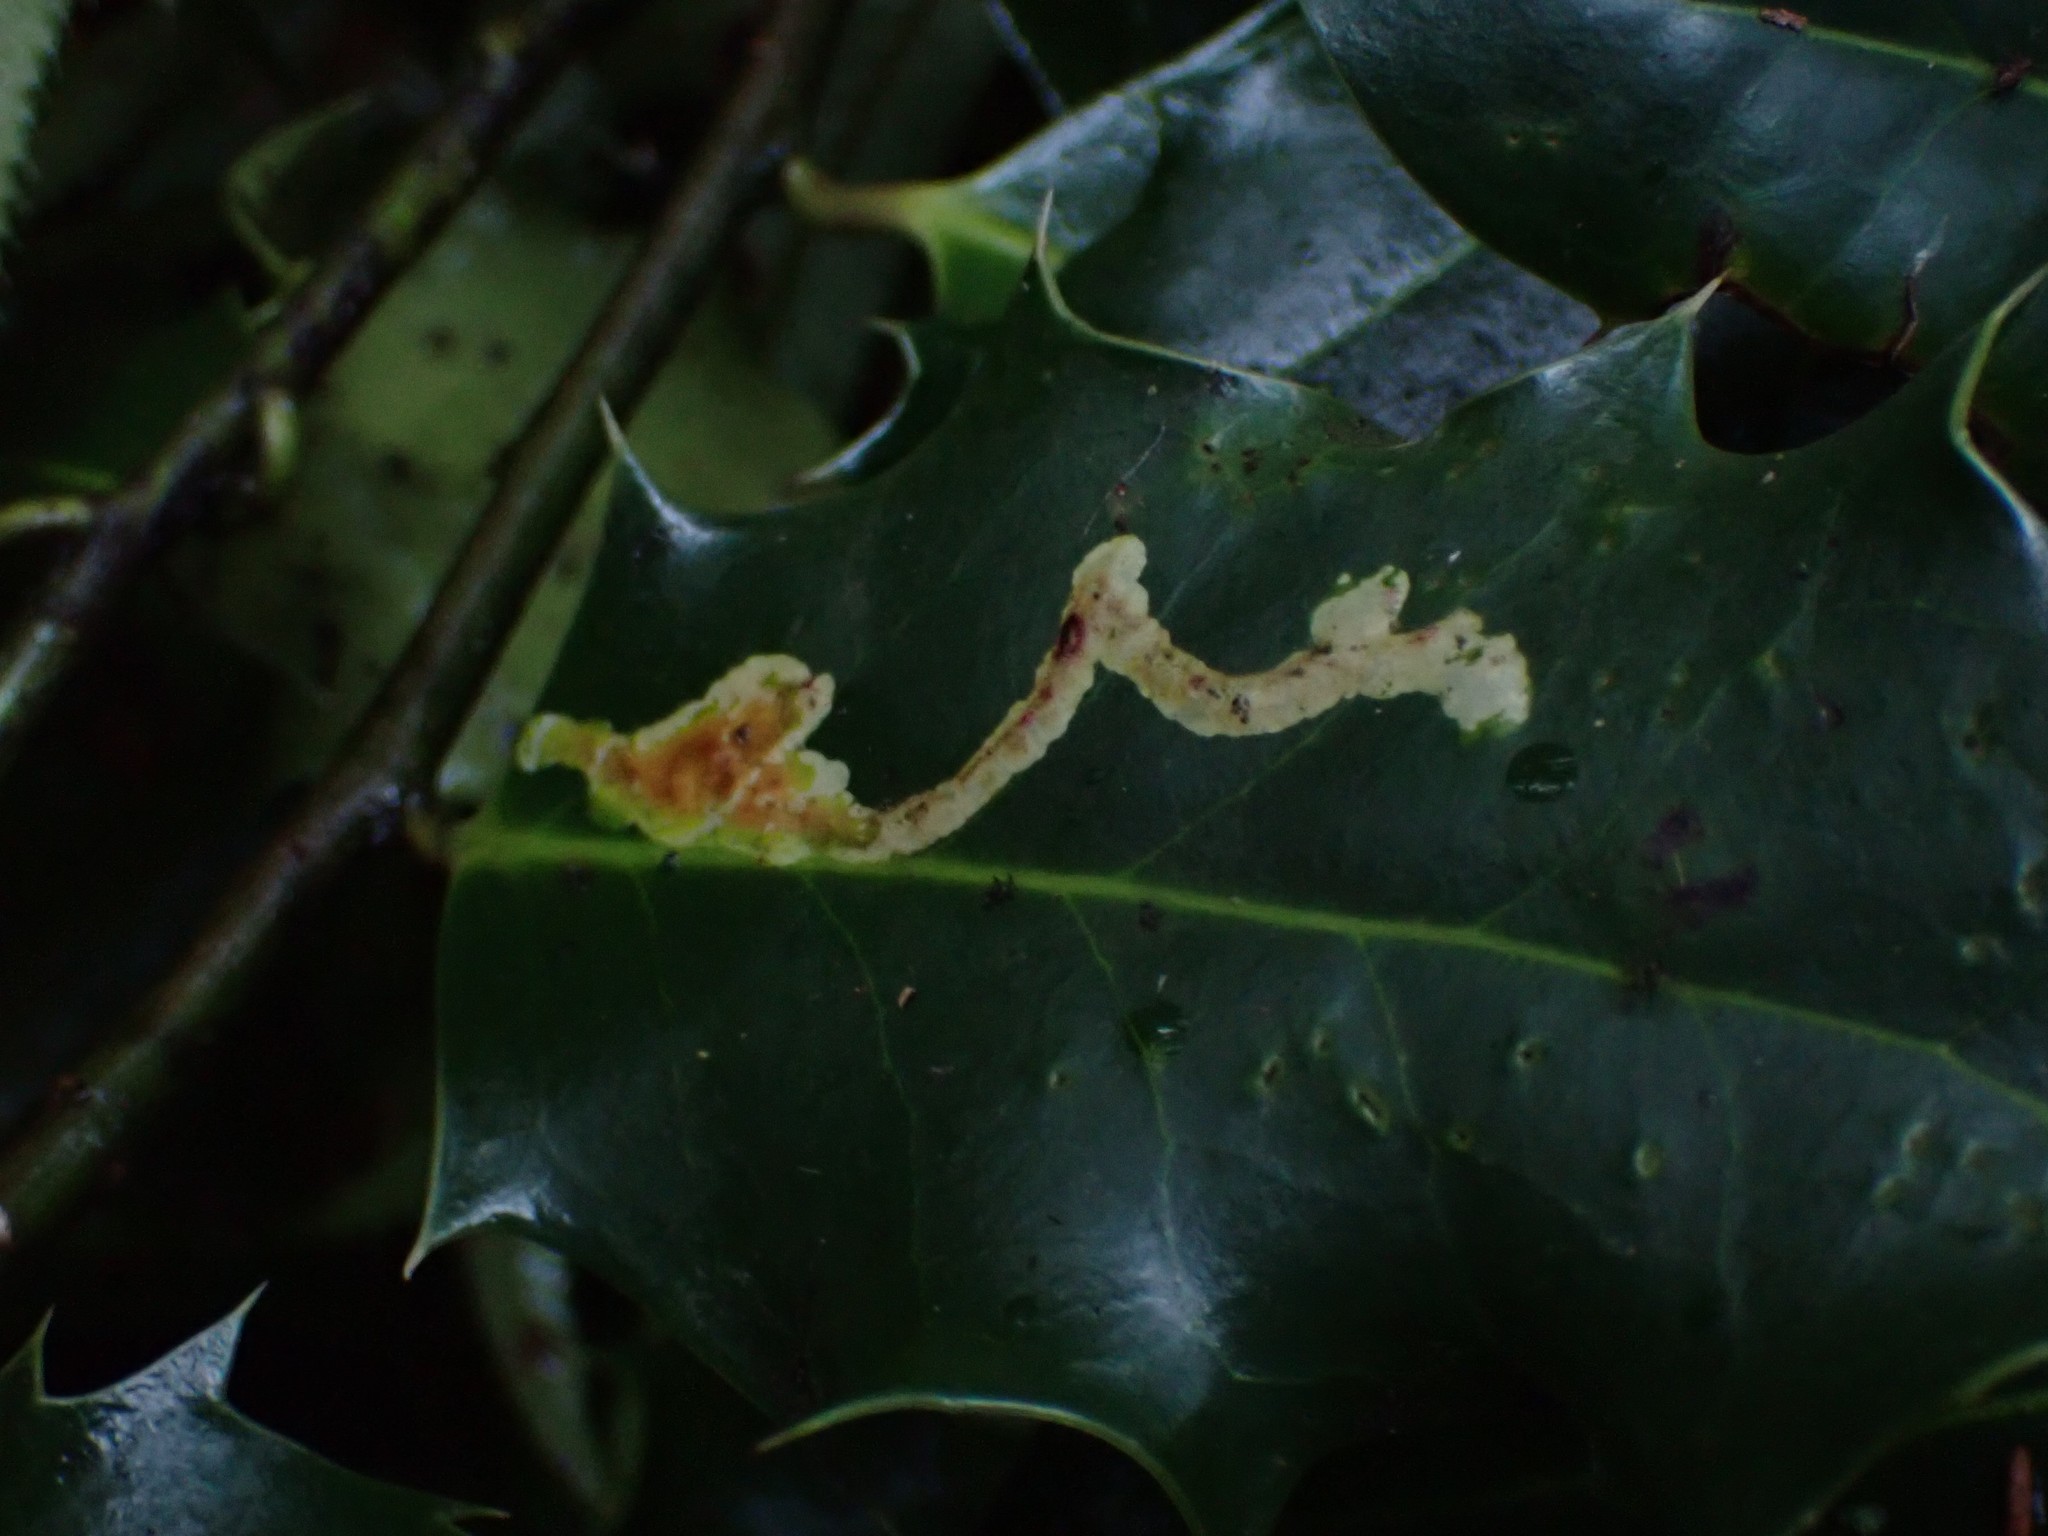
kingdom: Animalia
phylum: Arthropoda
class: Insecta
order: Diptera
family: Agromyzidae
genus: Phytomyza
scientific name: Phytomyza ilicis
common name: Holly leafminer
